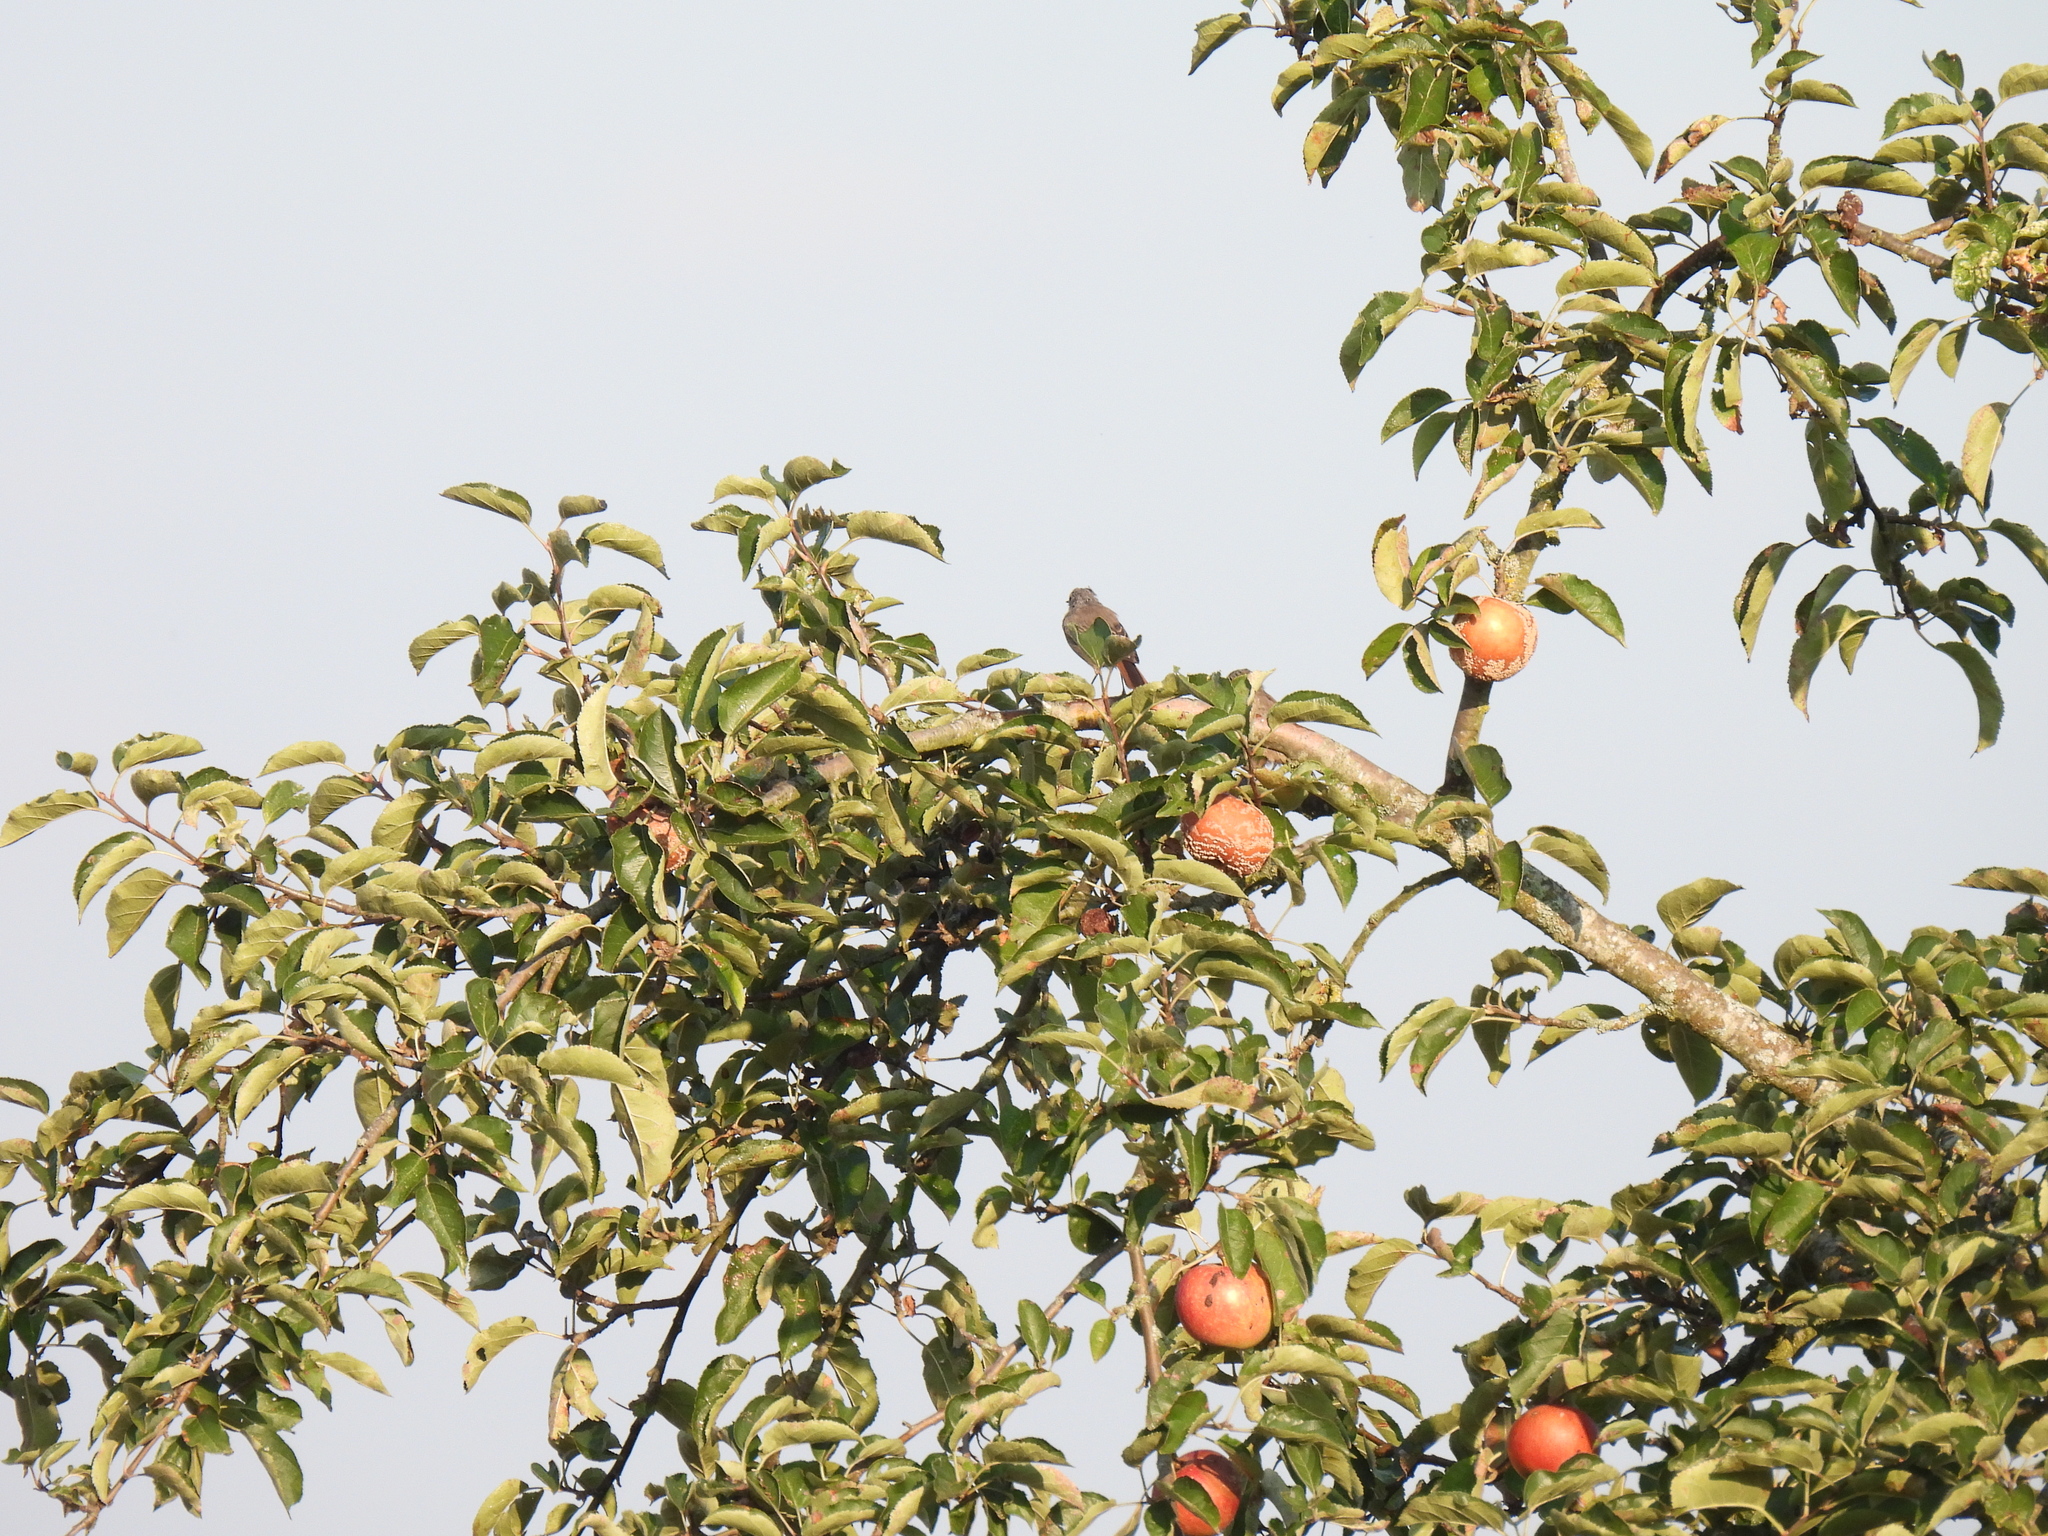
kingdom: Animalia
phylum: Chordata
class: Aves
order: Passeriformes
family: Muscicapidae
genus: Phoenicurus
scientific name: Phoenicurus ochruros
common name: Black redstart
